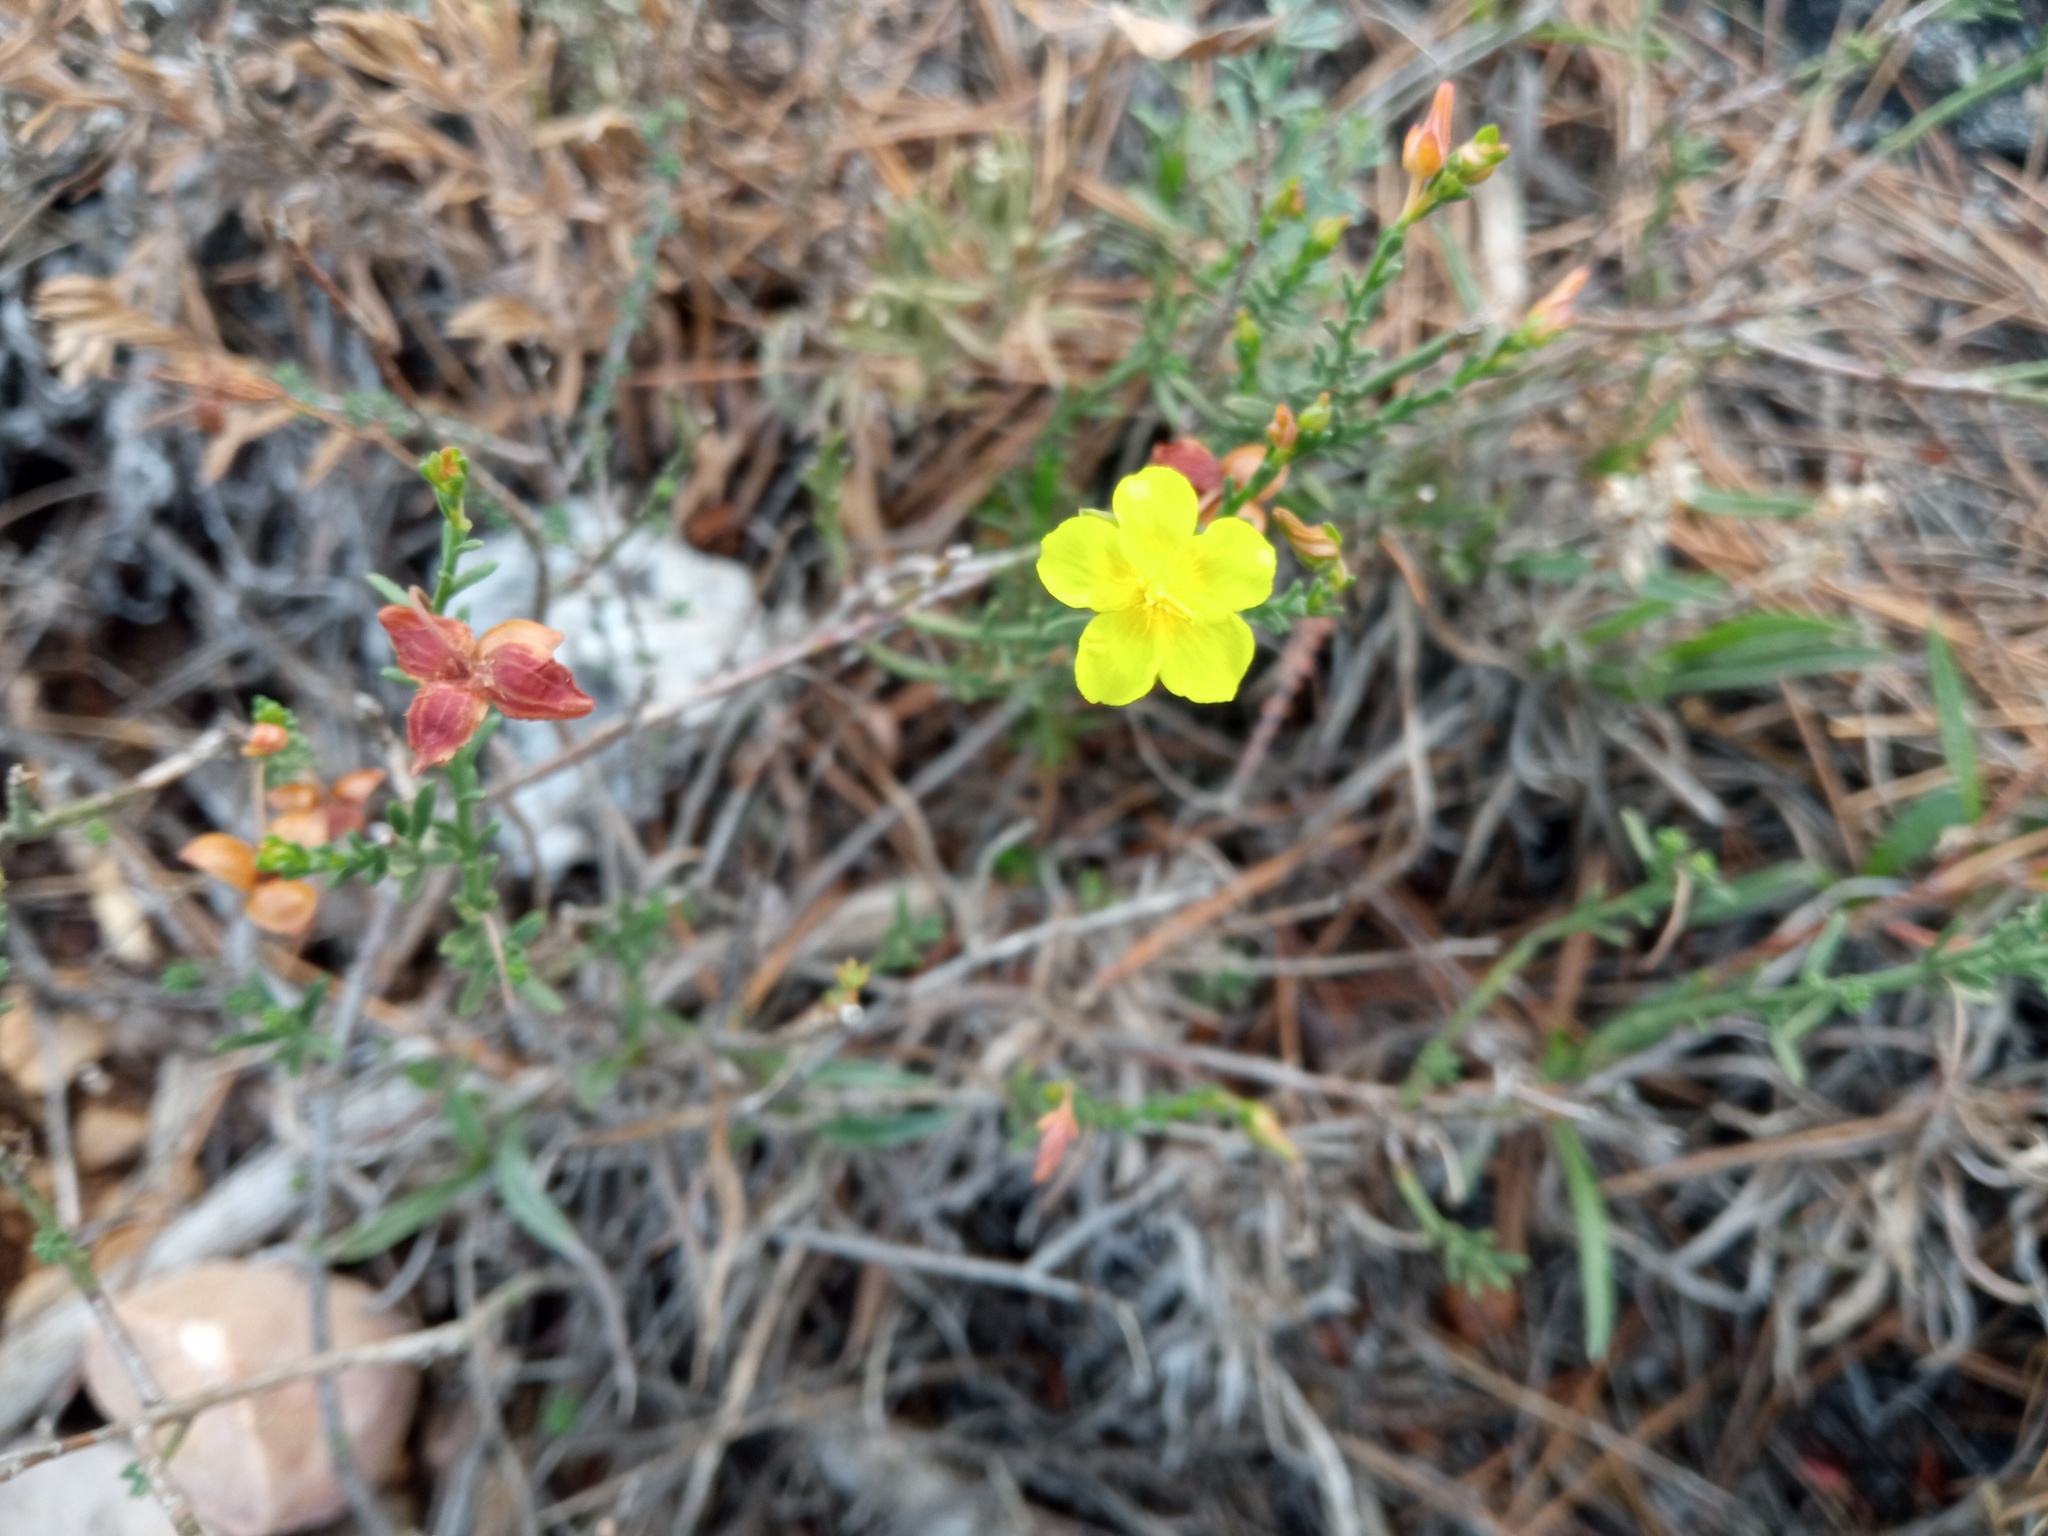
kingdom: Plantae
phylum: Tracheophyta
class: Magnoliopsida
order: Malvales
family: Cistaceae
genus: Fumana
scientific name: Fumana ericifolia
